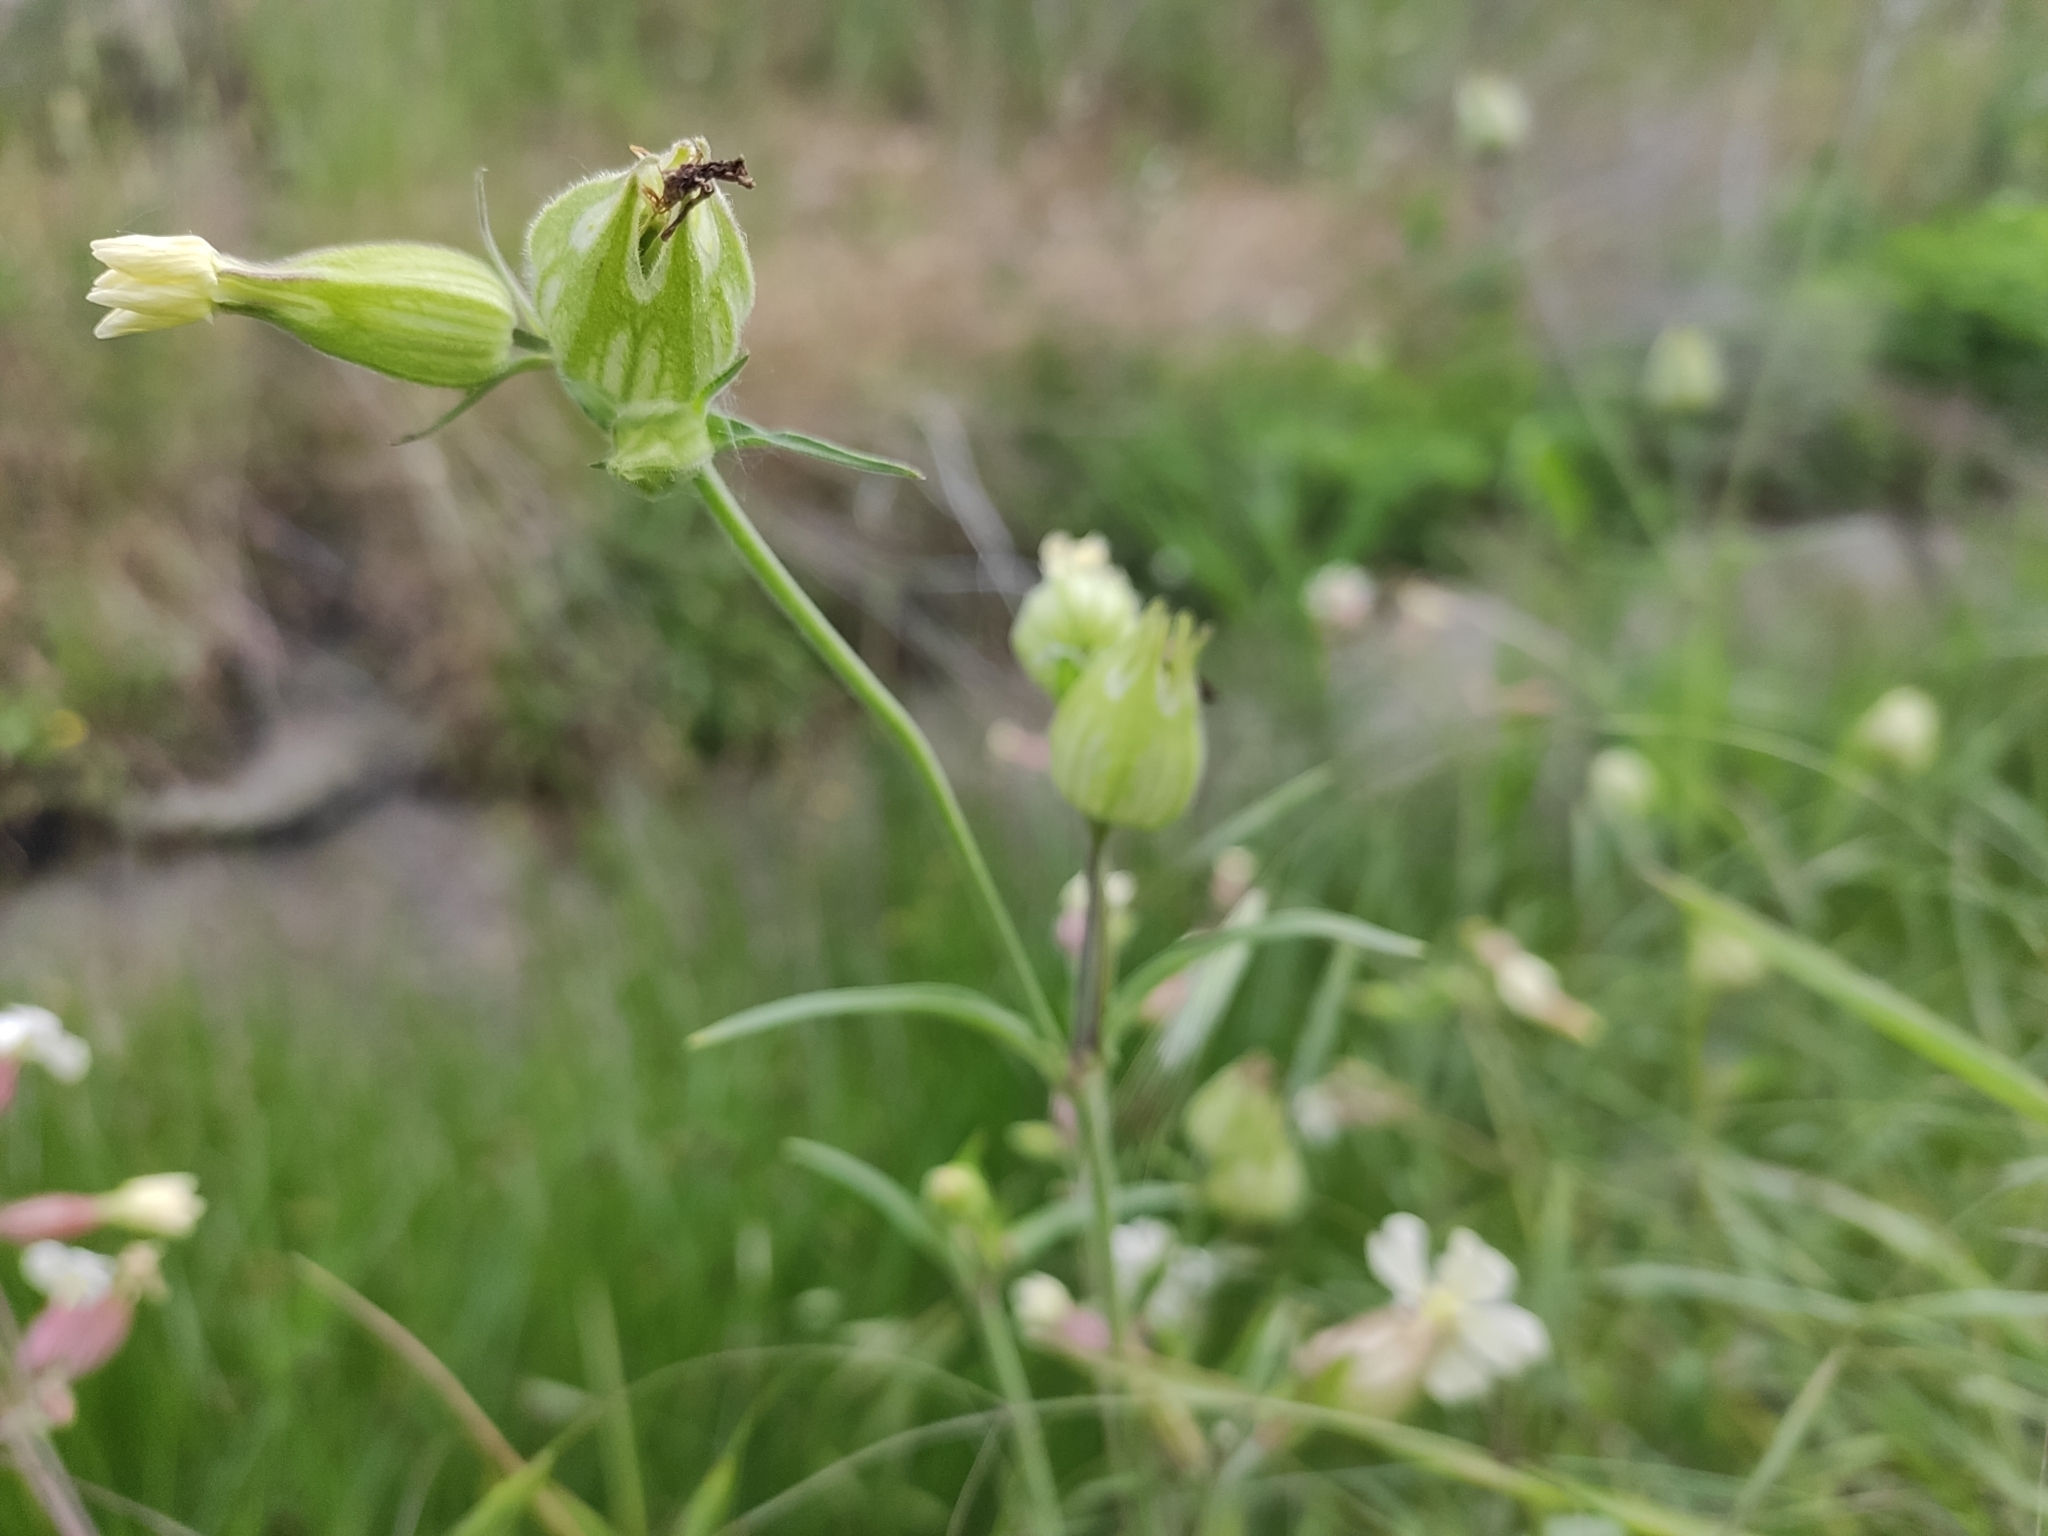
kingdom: Plantae
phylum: Tracheophyta
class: Magnoliopsida
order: Caryophyllales
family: Caryophyllaceae
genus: Silene
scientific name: Silene latifolia
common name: White campion
